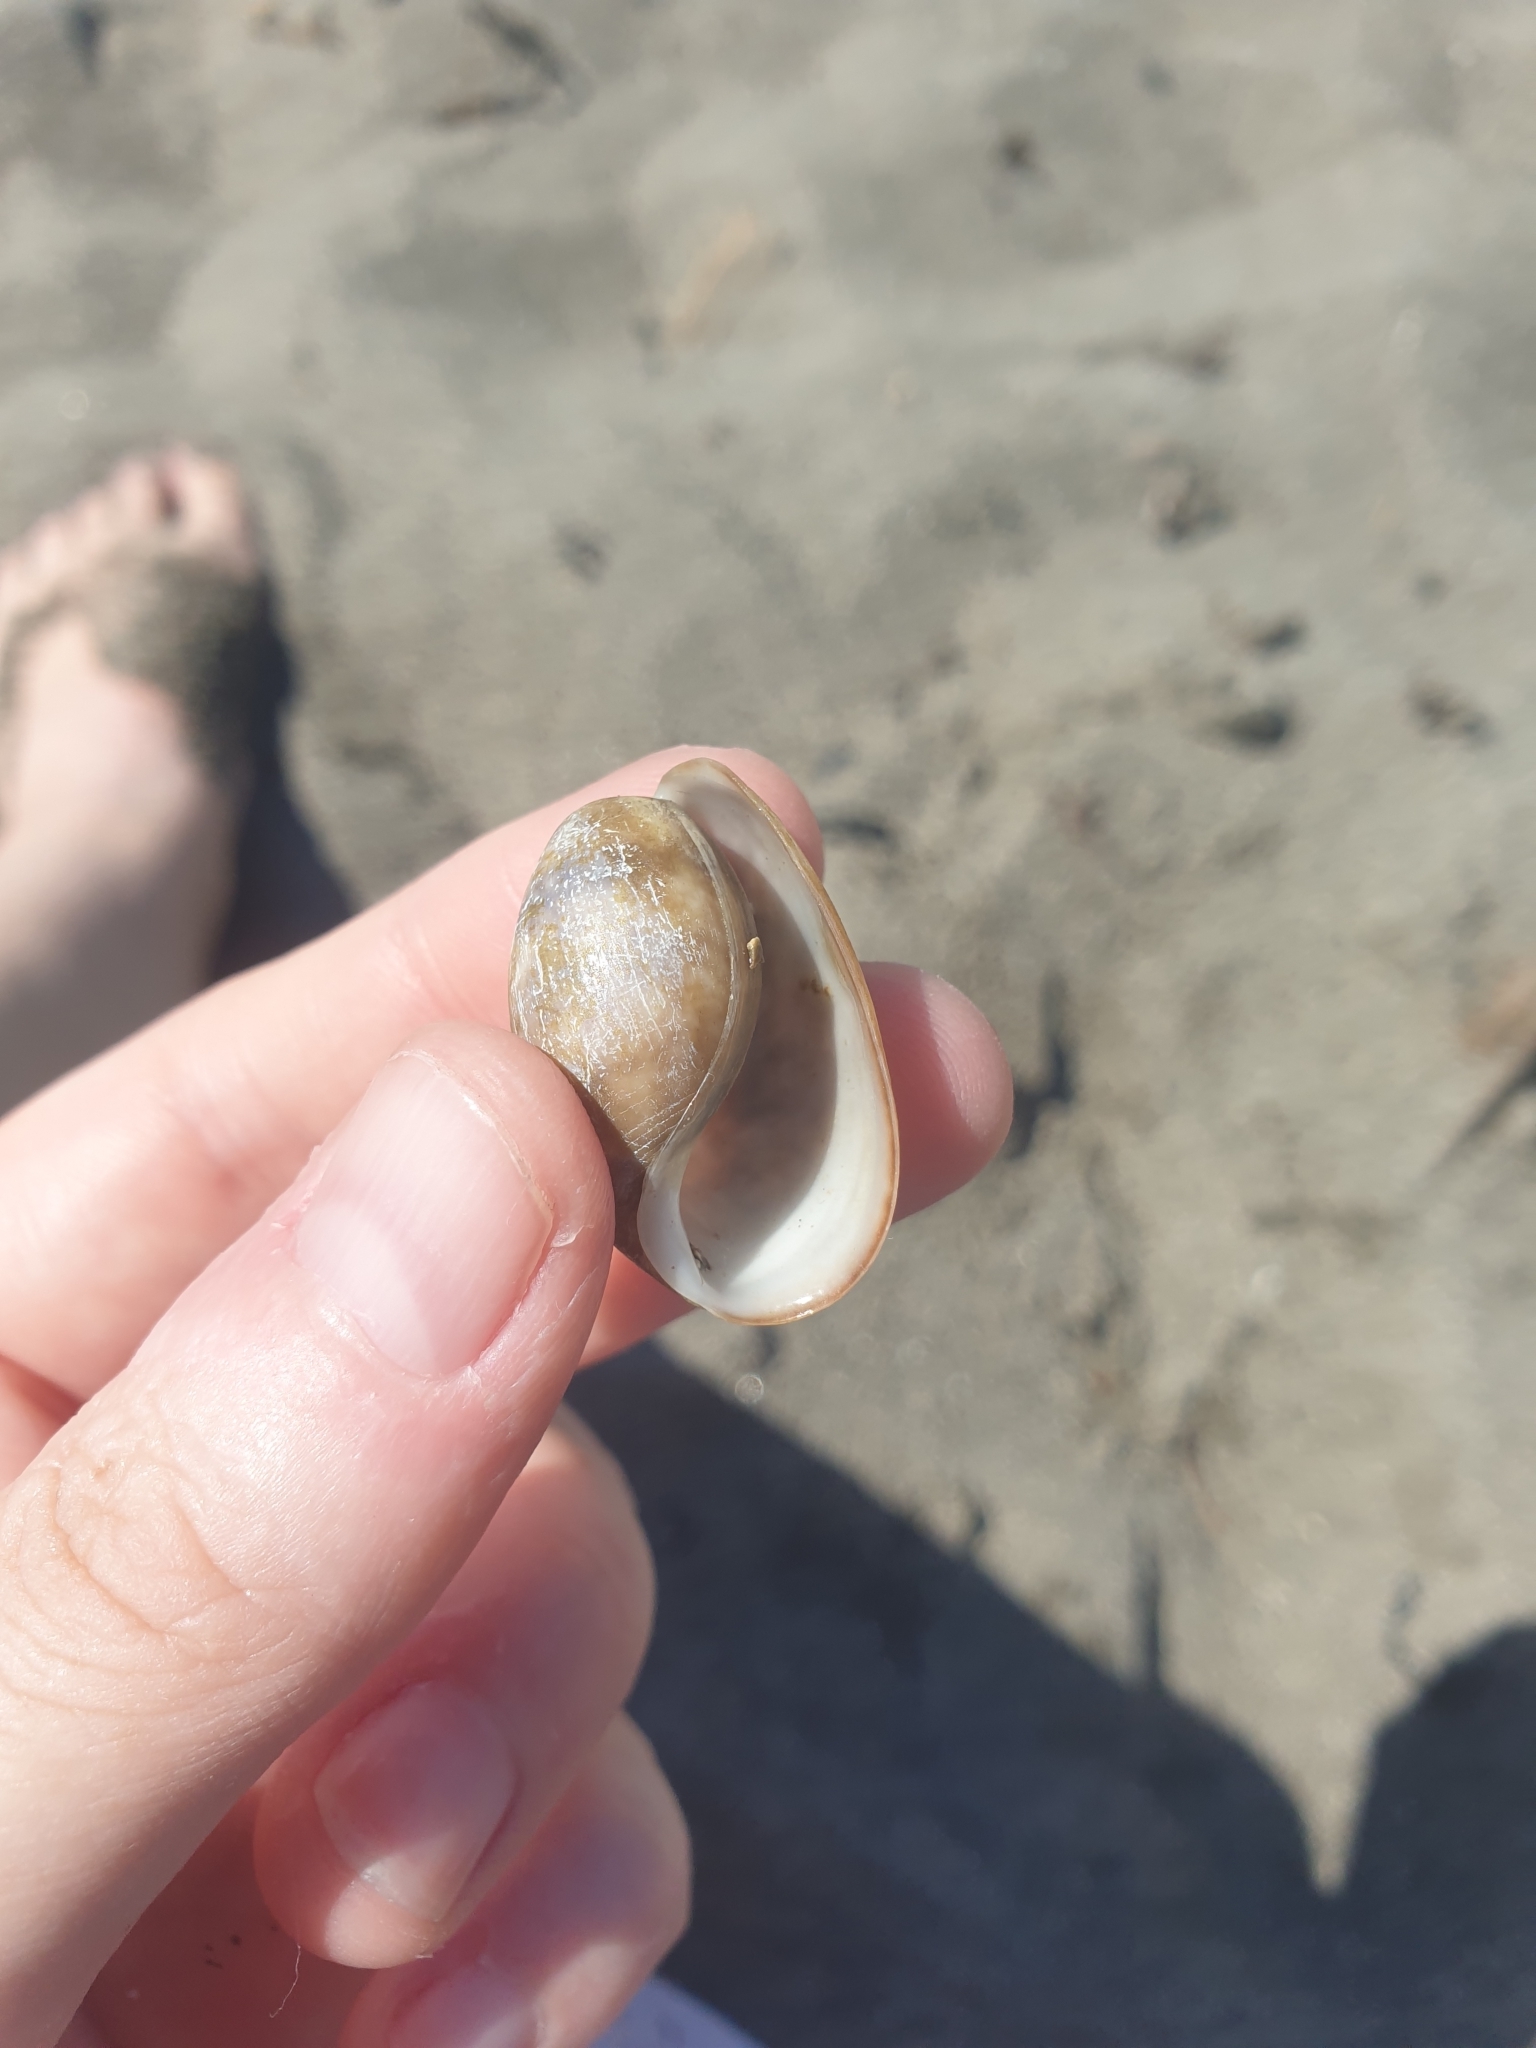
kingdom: Animalia
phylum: Mollusca
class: Gastropoda
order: Cephalaspidea
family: Bullidae
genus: Bulla
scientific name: Bulla quoyii
